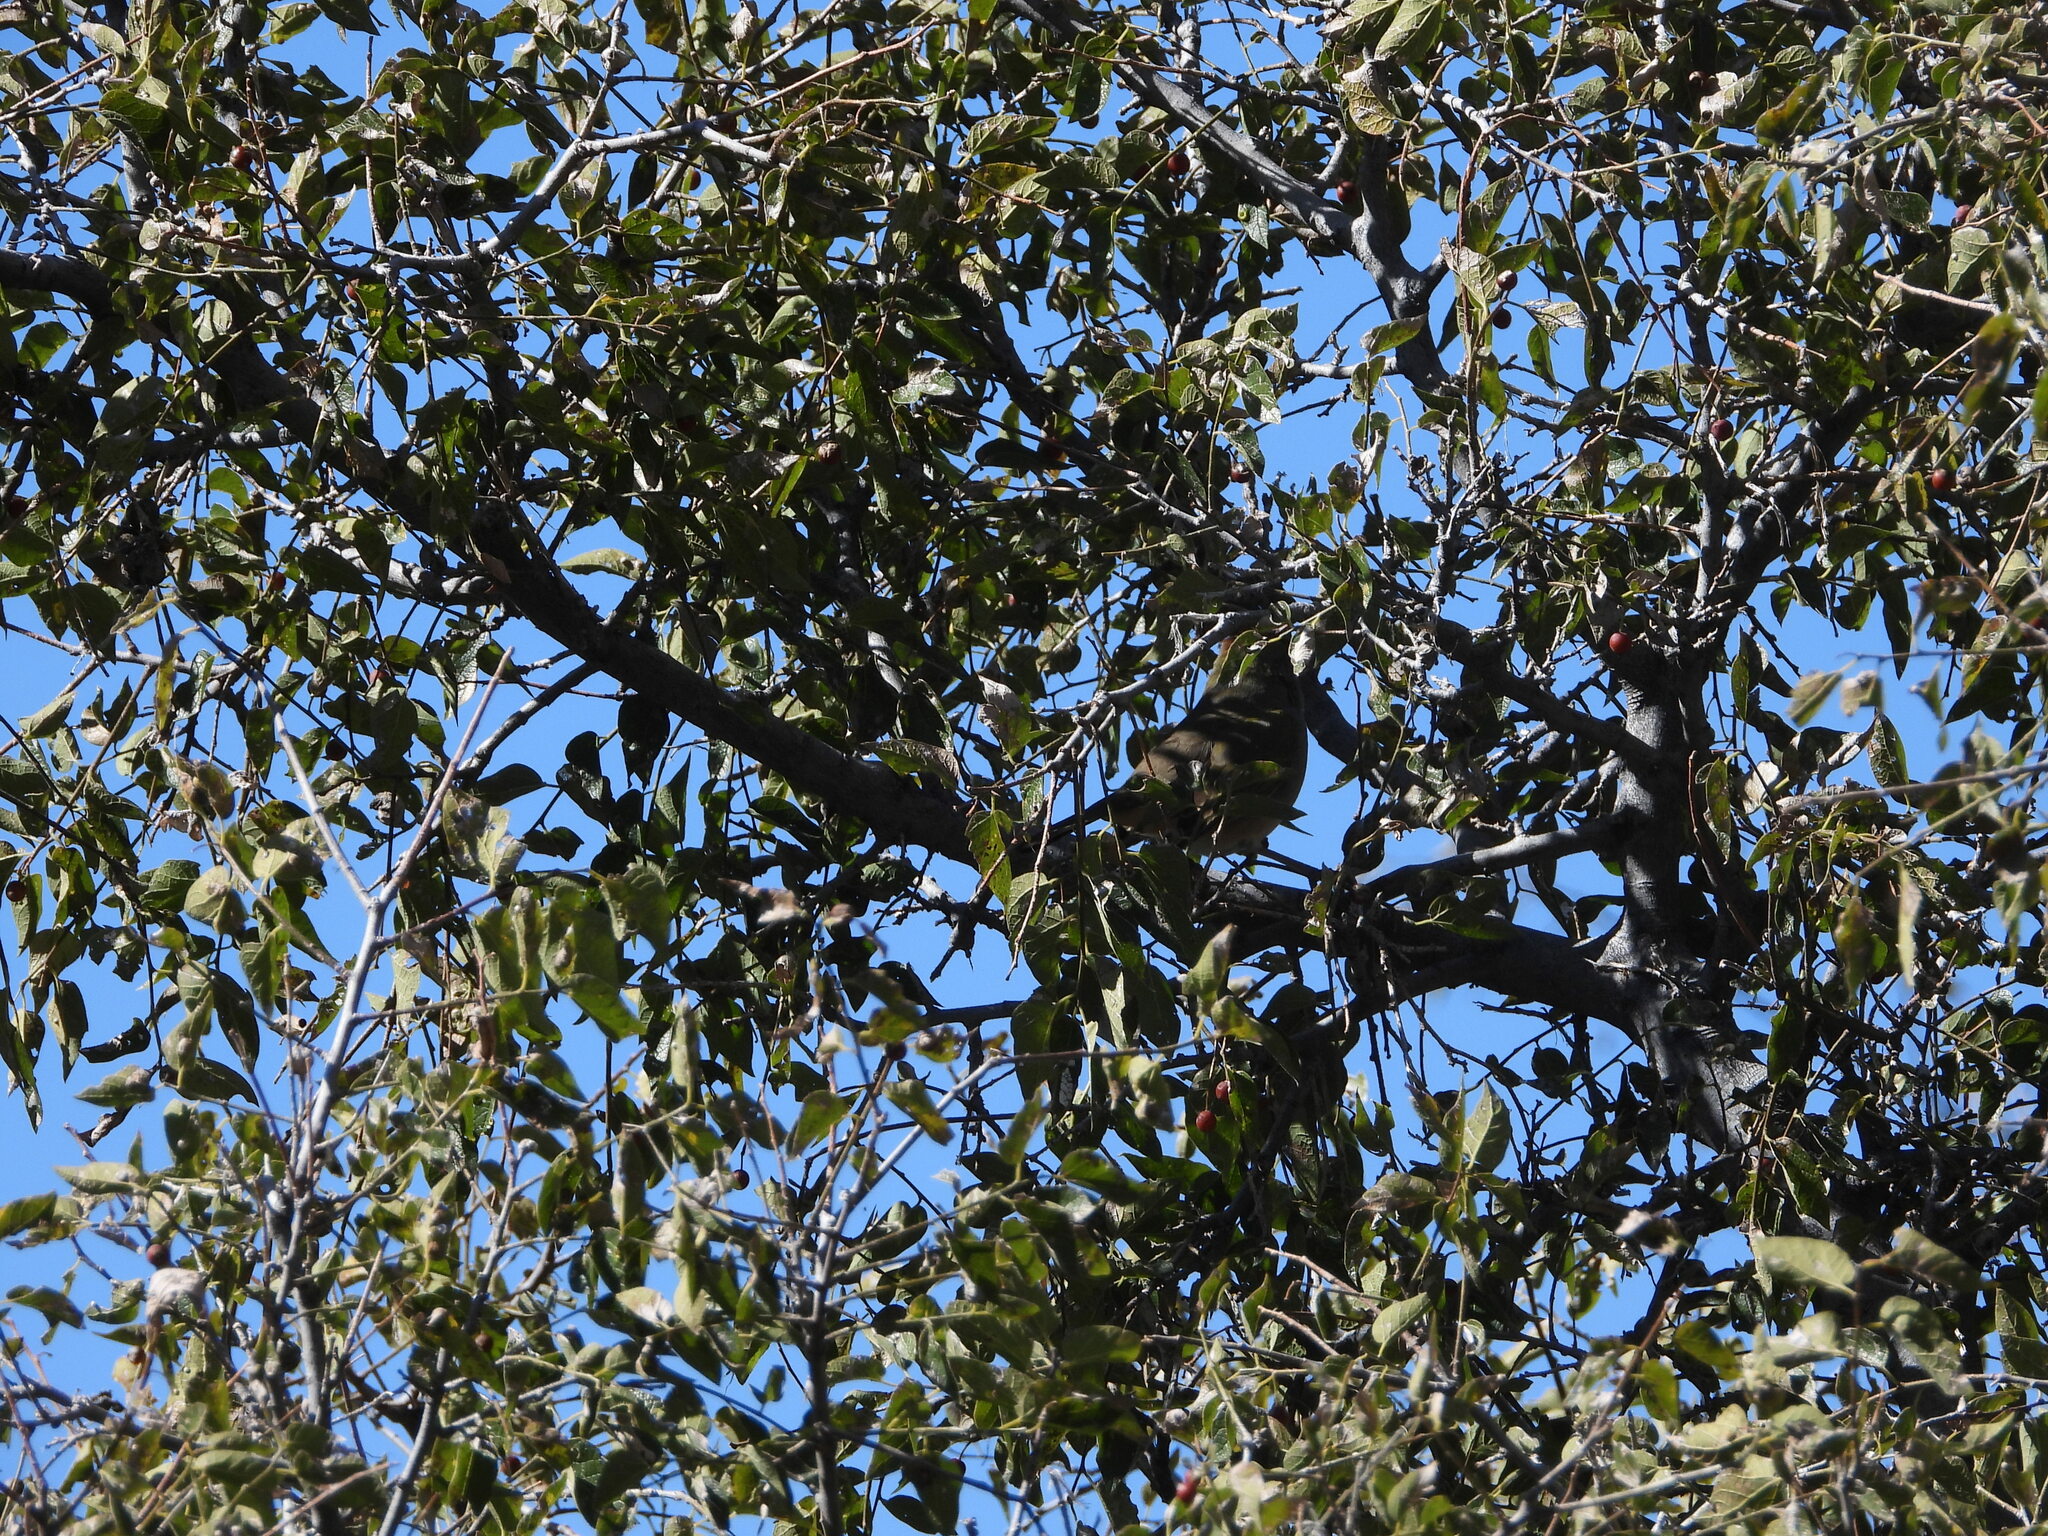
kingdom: Animalia
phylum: Chordata
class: Aves
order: Passeriformes
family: Passerellidae
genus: Pipilo
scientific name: Pipilo chlorurus
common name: Green-tailed towhee
